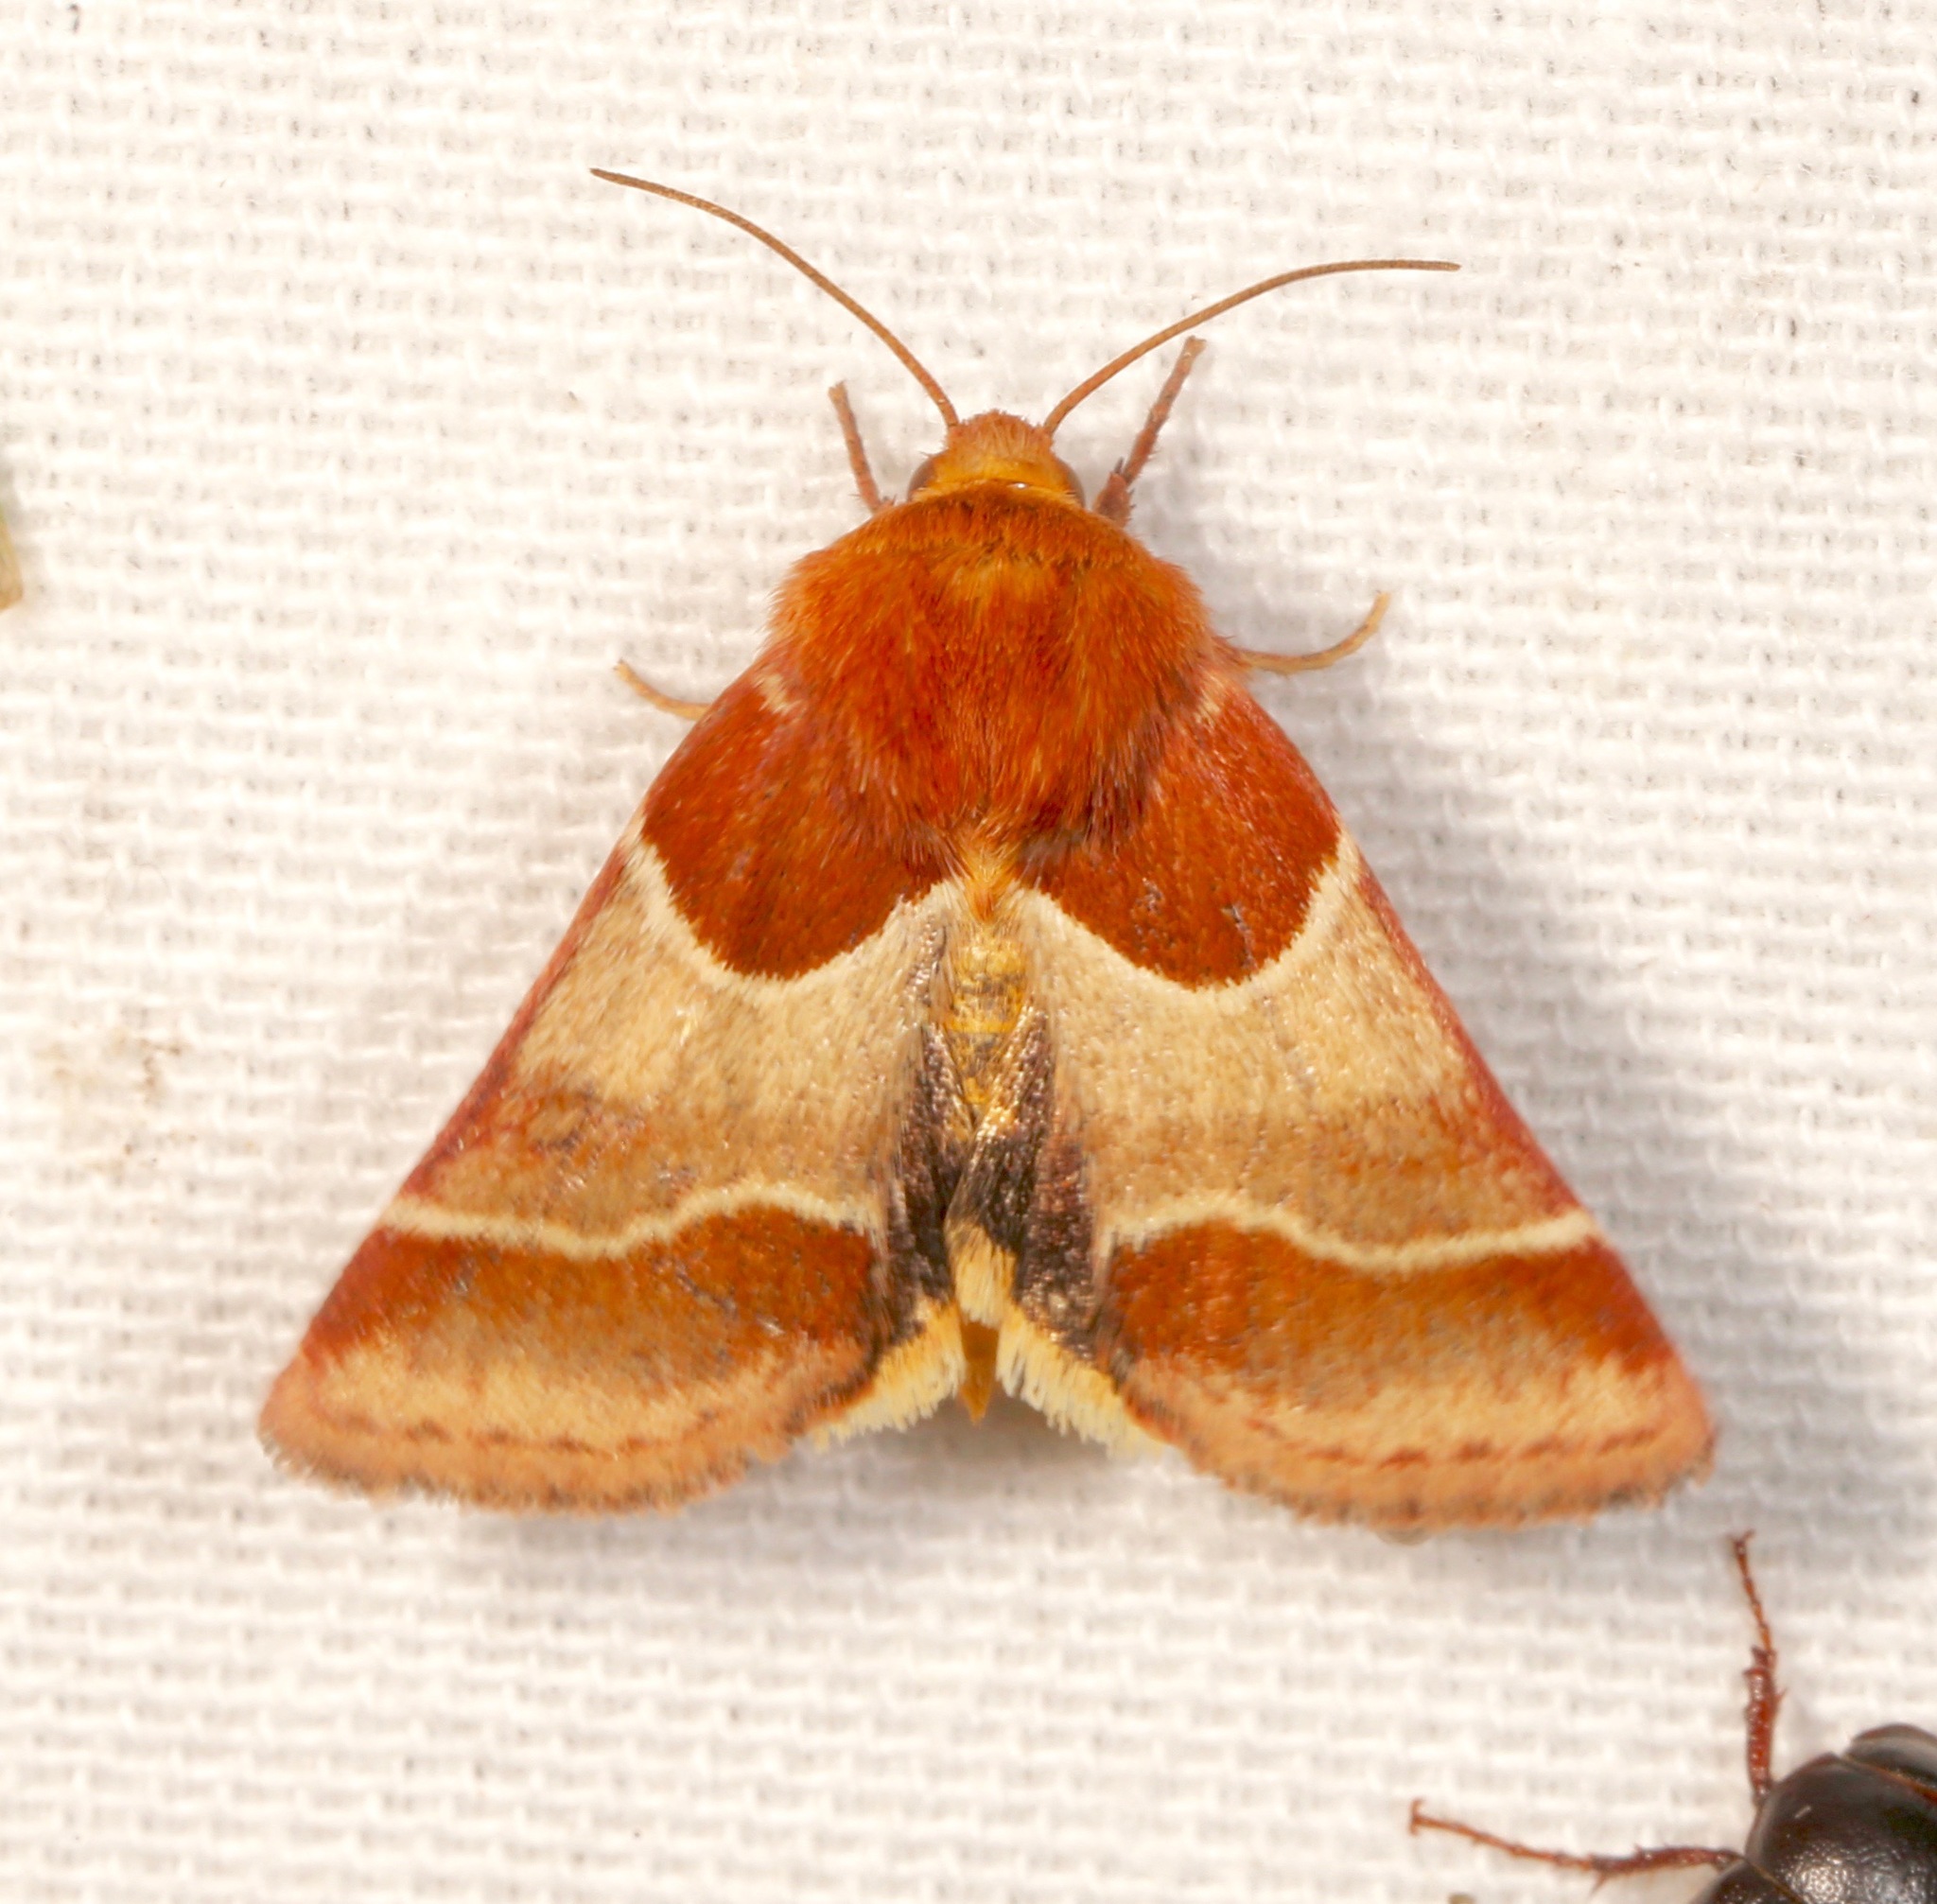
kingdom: Animalia
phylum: Arthropoda
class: Insecta
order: Lepidoptera
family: Noctuidae
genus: Schinia
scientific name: Schinia arcigera
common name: Arcigera flower moth
